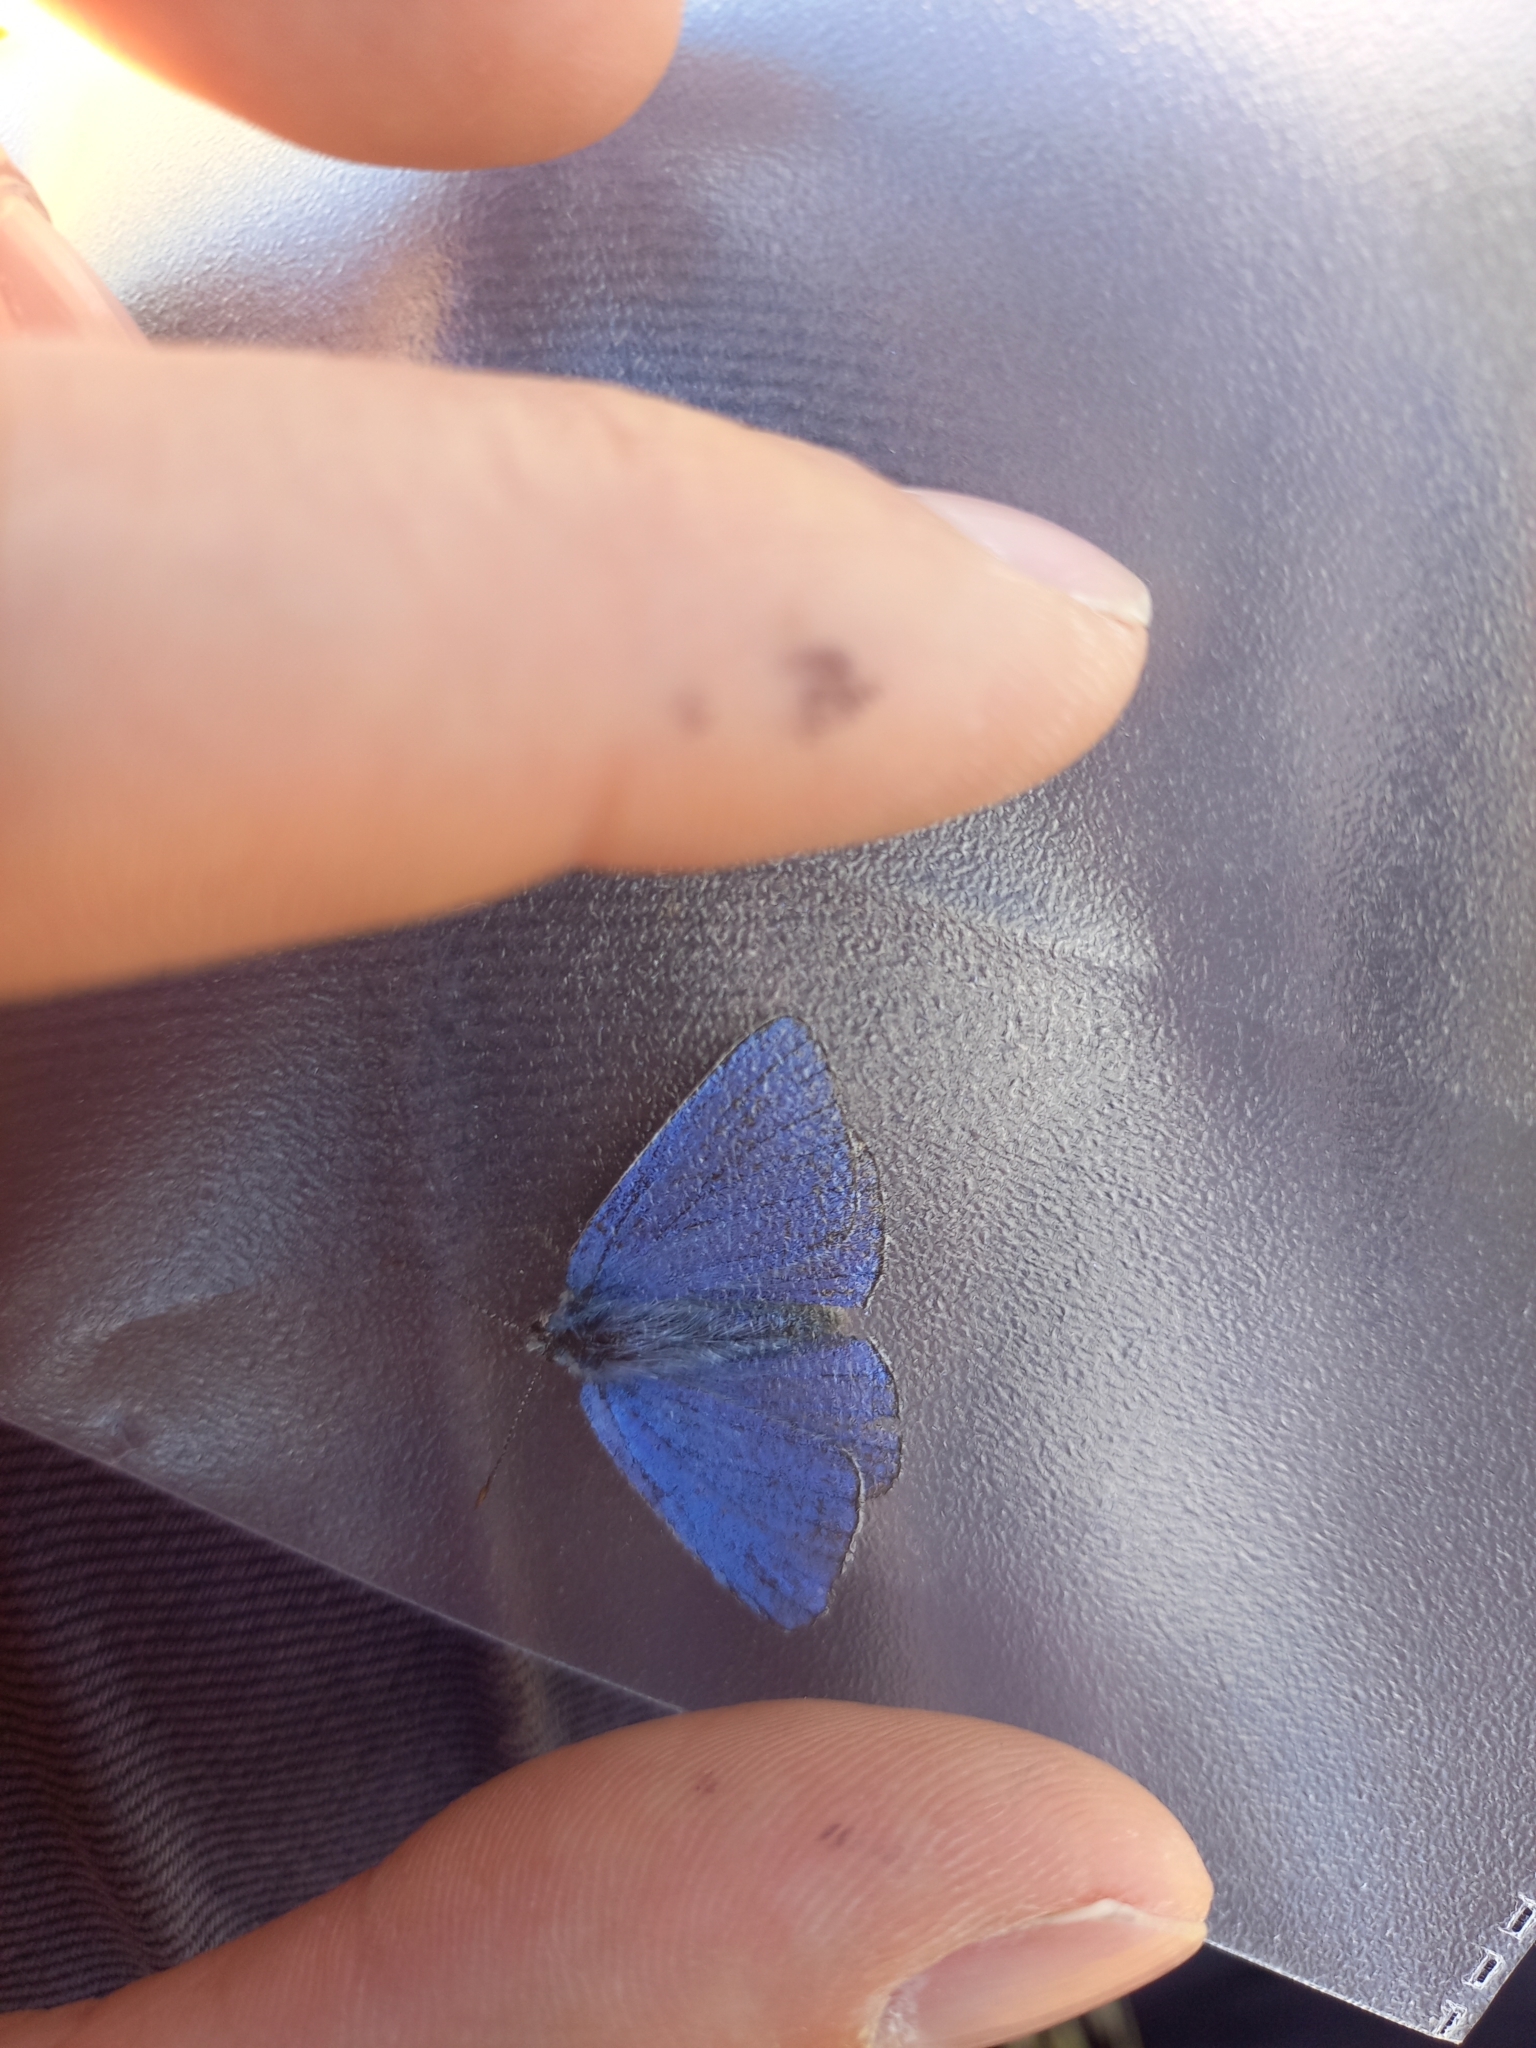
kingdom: Animalia
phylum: Arthropoda
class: Insecta
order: Lepidoptera
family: Lycaenidae
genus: Lysandra
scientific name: Lysandra bellargus
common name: Adonis blue
